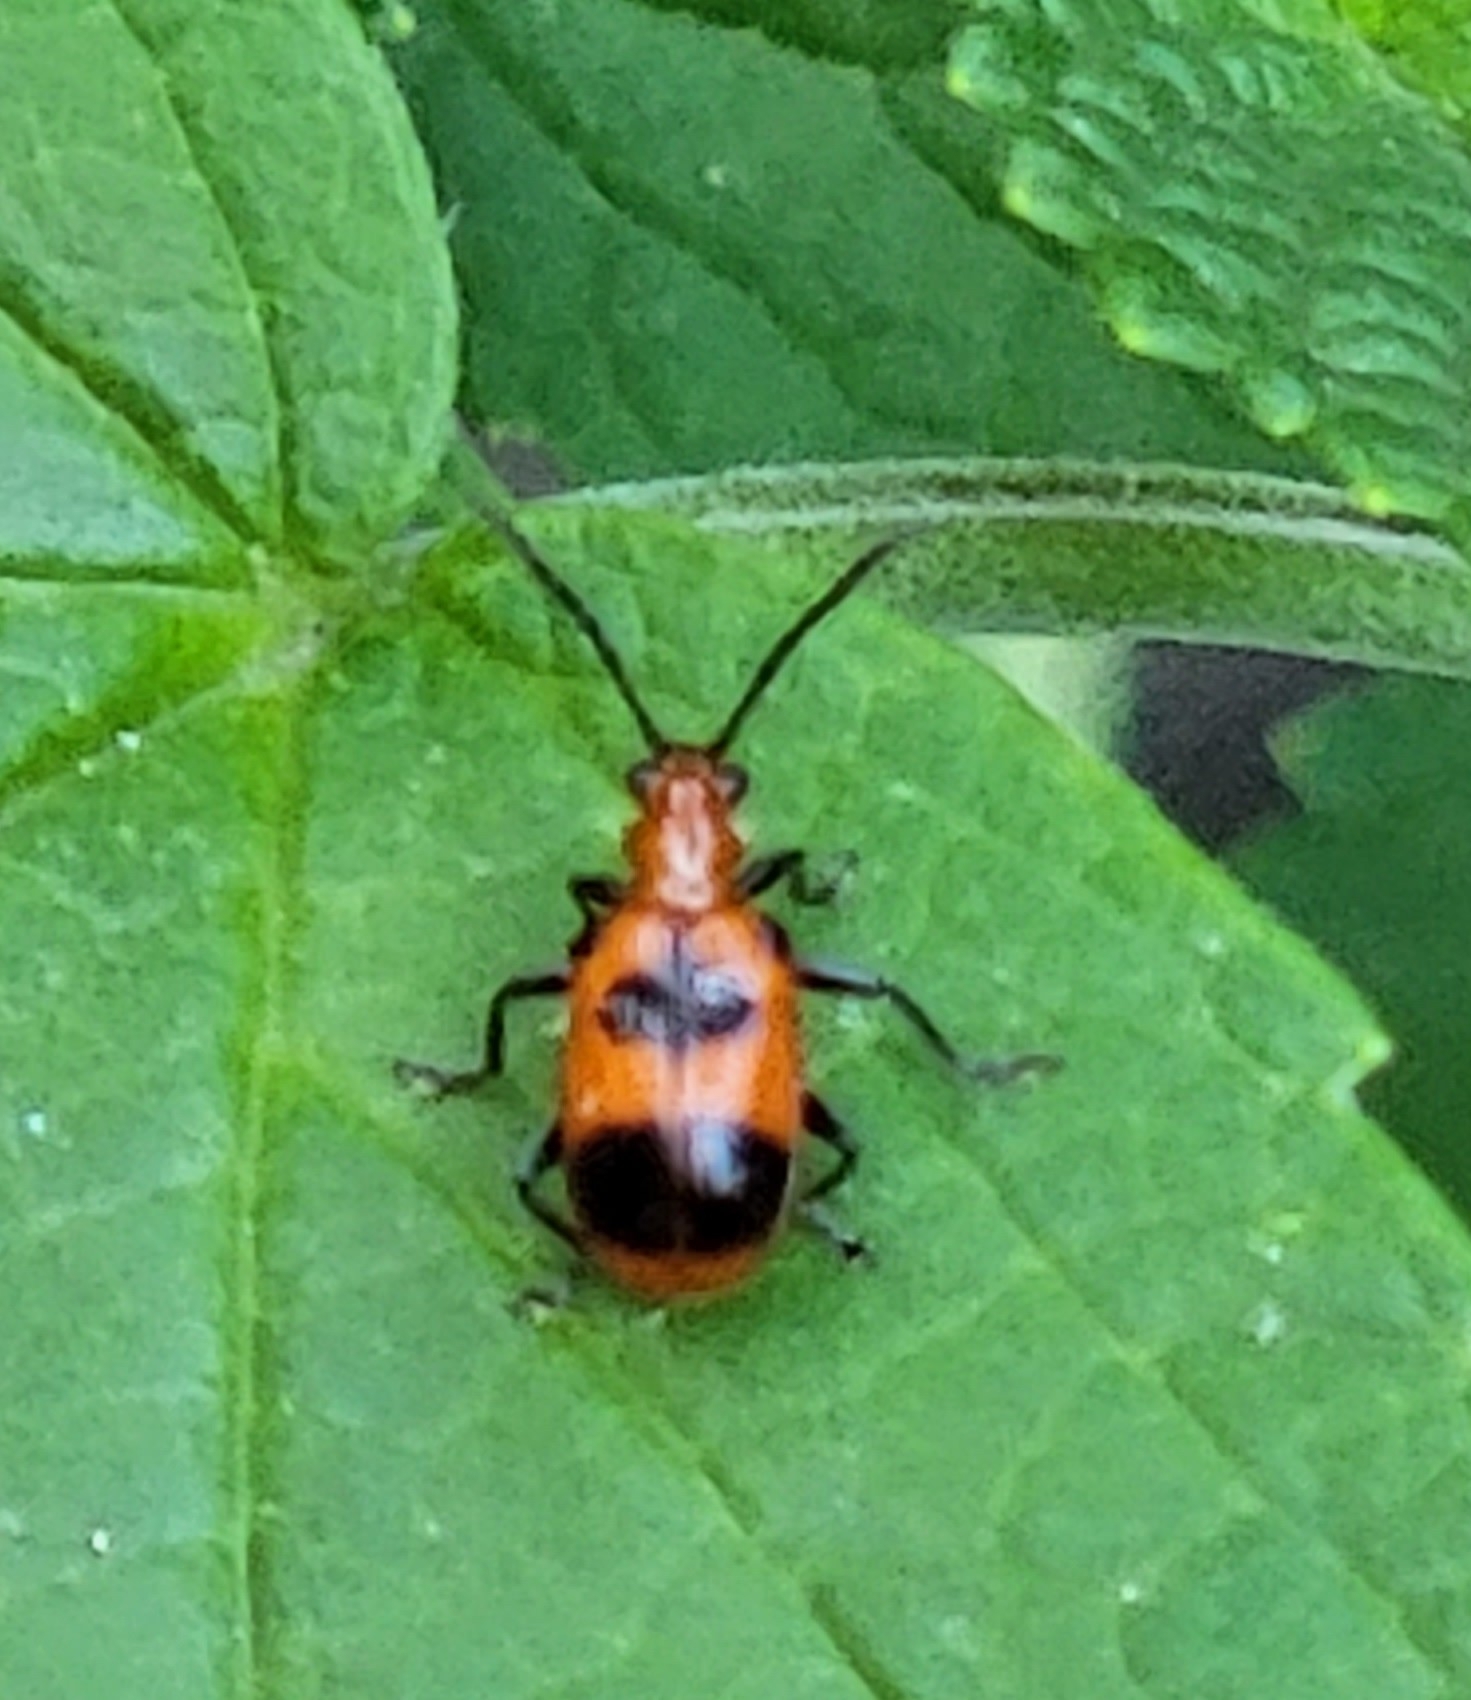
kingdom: Animalia
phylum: Arthropoda
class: Insecta
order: Coleoptera
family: Chrysomelidae
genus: Neolema
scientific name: Neolema sexpunctata
